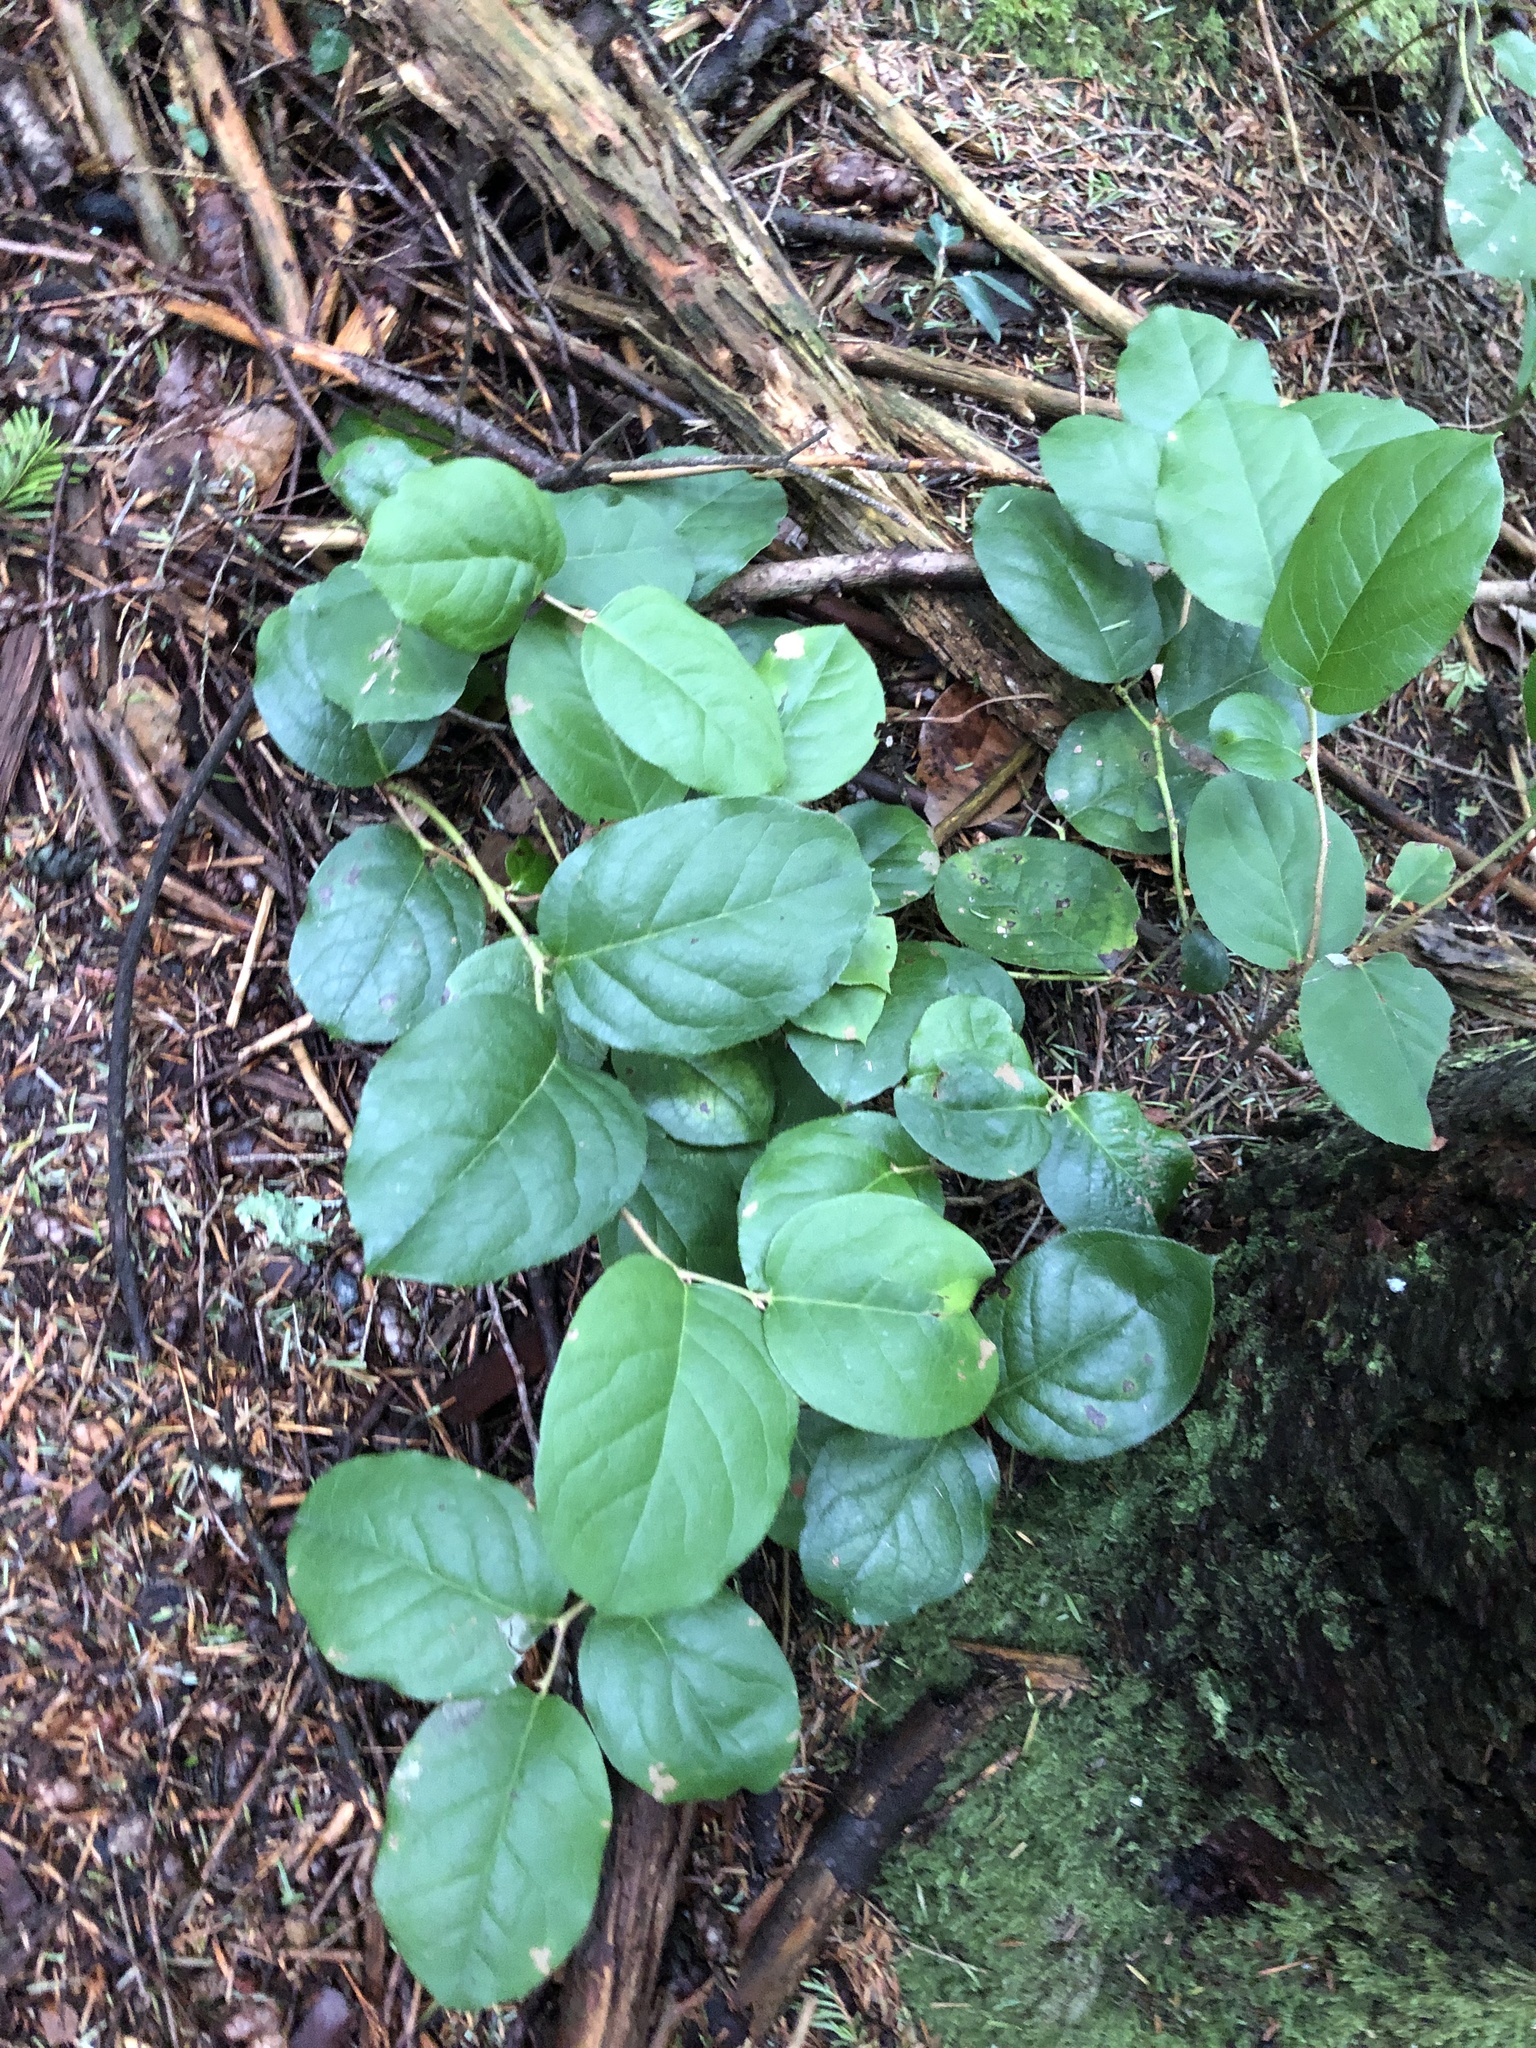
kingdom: Plantae
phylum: Tracheophyta
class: Magnoliopsida
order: Ericales
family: Ericaceae
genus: Gaultheria
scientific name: Gaultheria shallon
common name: Shallon
